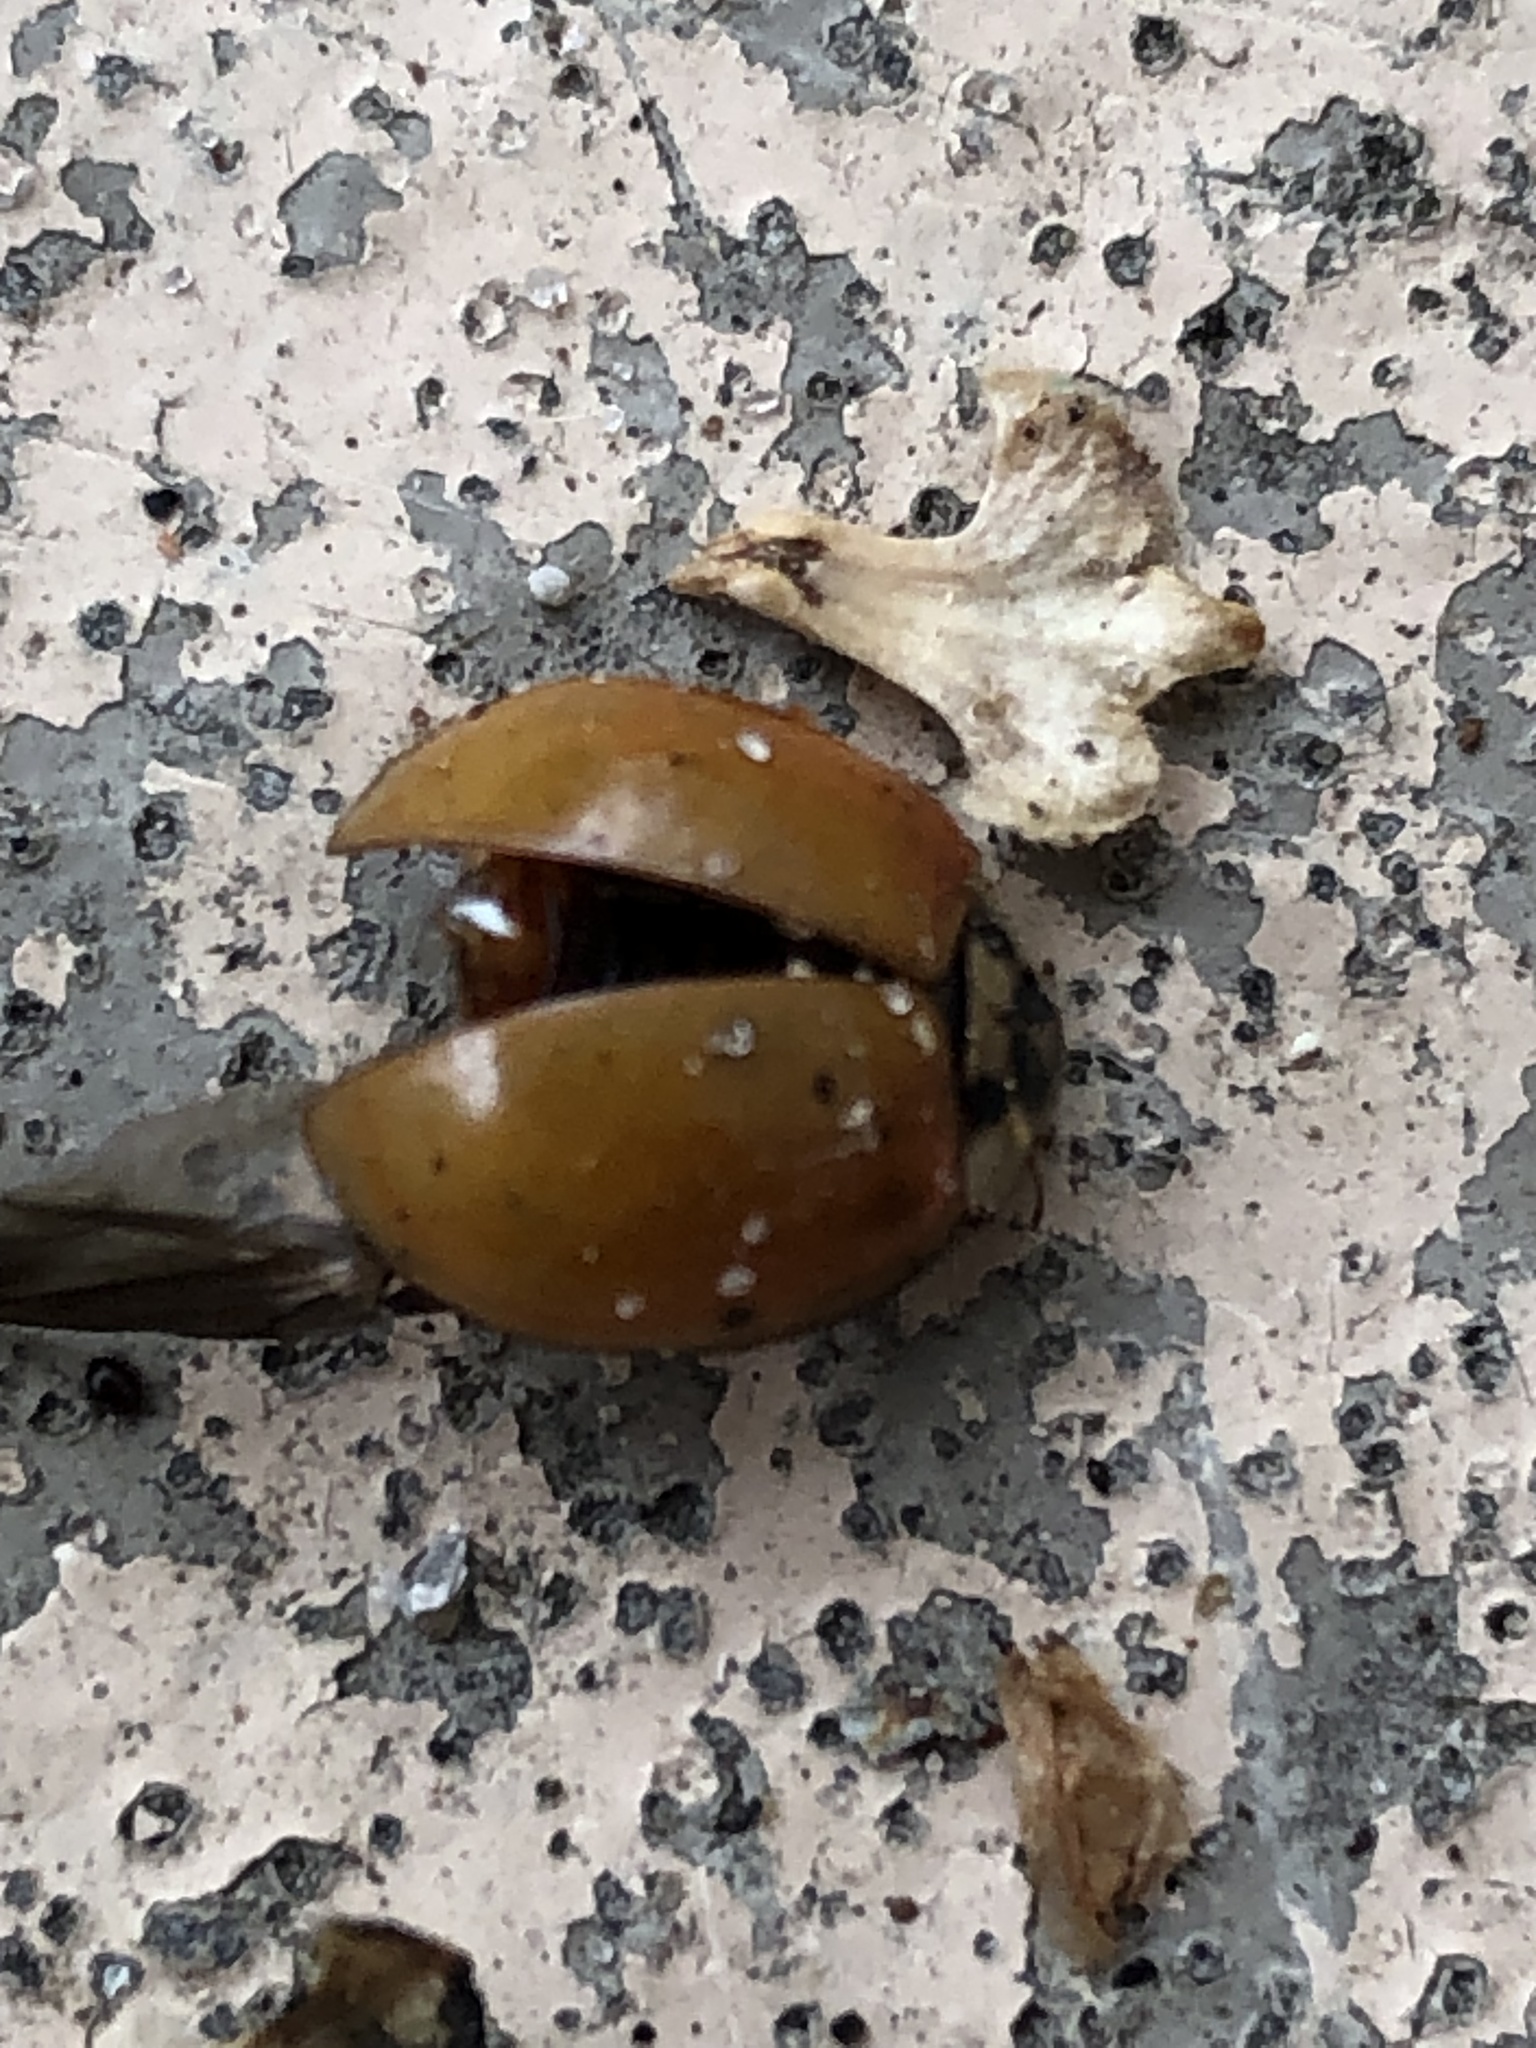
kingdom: Animalia
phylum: Arthropoda
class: Insecta
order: Coleoptera
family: Coccinellidae
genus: Harmonia
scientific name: Harmonia axyridis
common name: Harlequin ladybird
